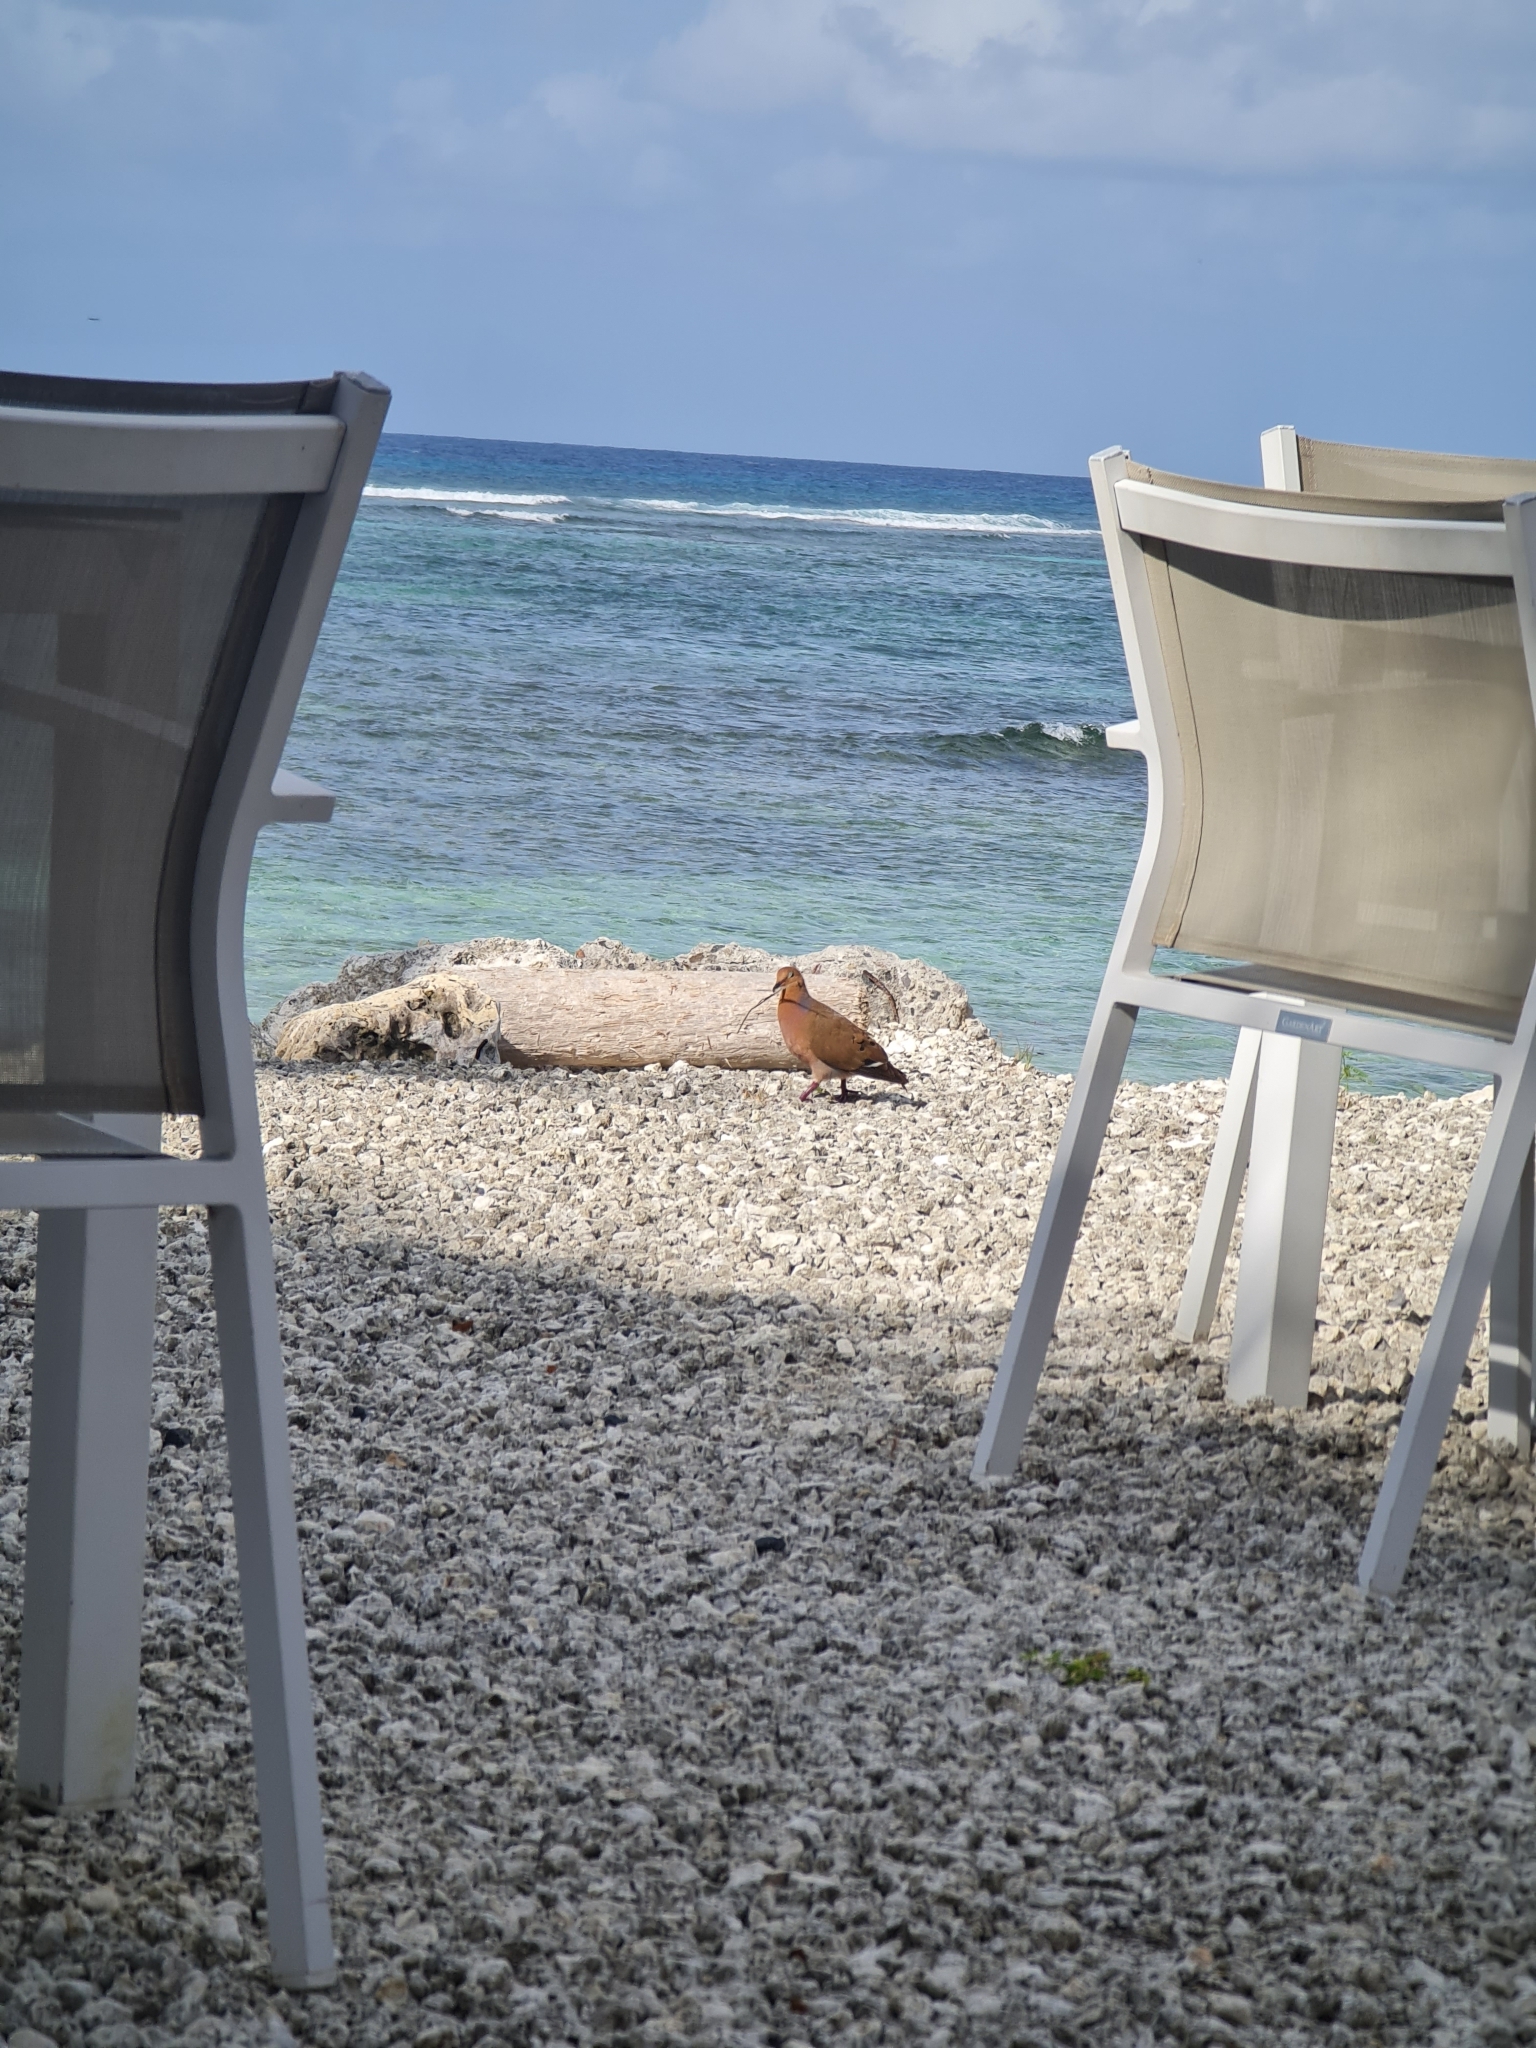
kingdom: Animalia
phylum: Chordata
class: Aves
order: Columbiformes
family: Columbidae
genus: Zenaida
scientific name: Zenaida aurita
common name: Zenaida dove
